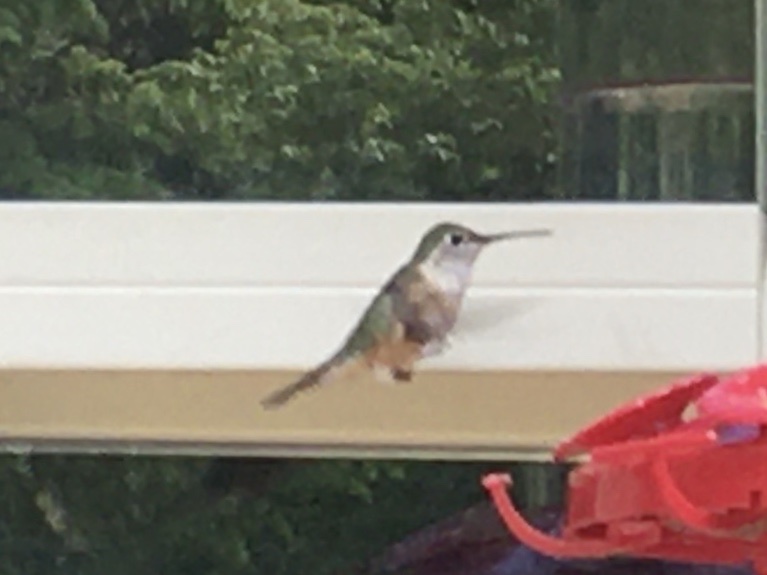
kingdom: Animalia
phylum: Chordata
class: Aves
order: Apodiformes
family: Trochilidae
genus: Selasphorus
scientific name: Selasphorus platycercus
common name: Broad-tailed hummingbird
